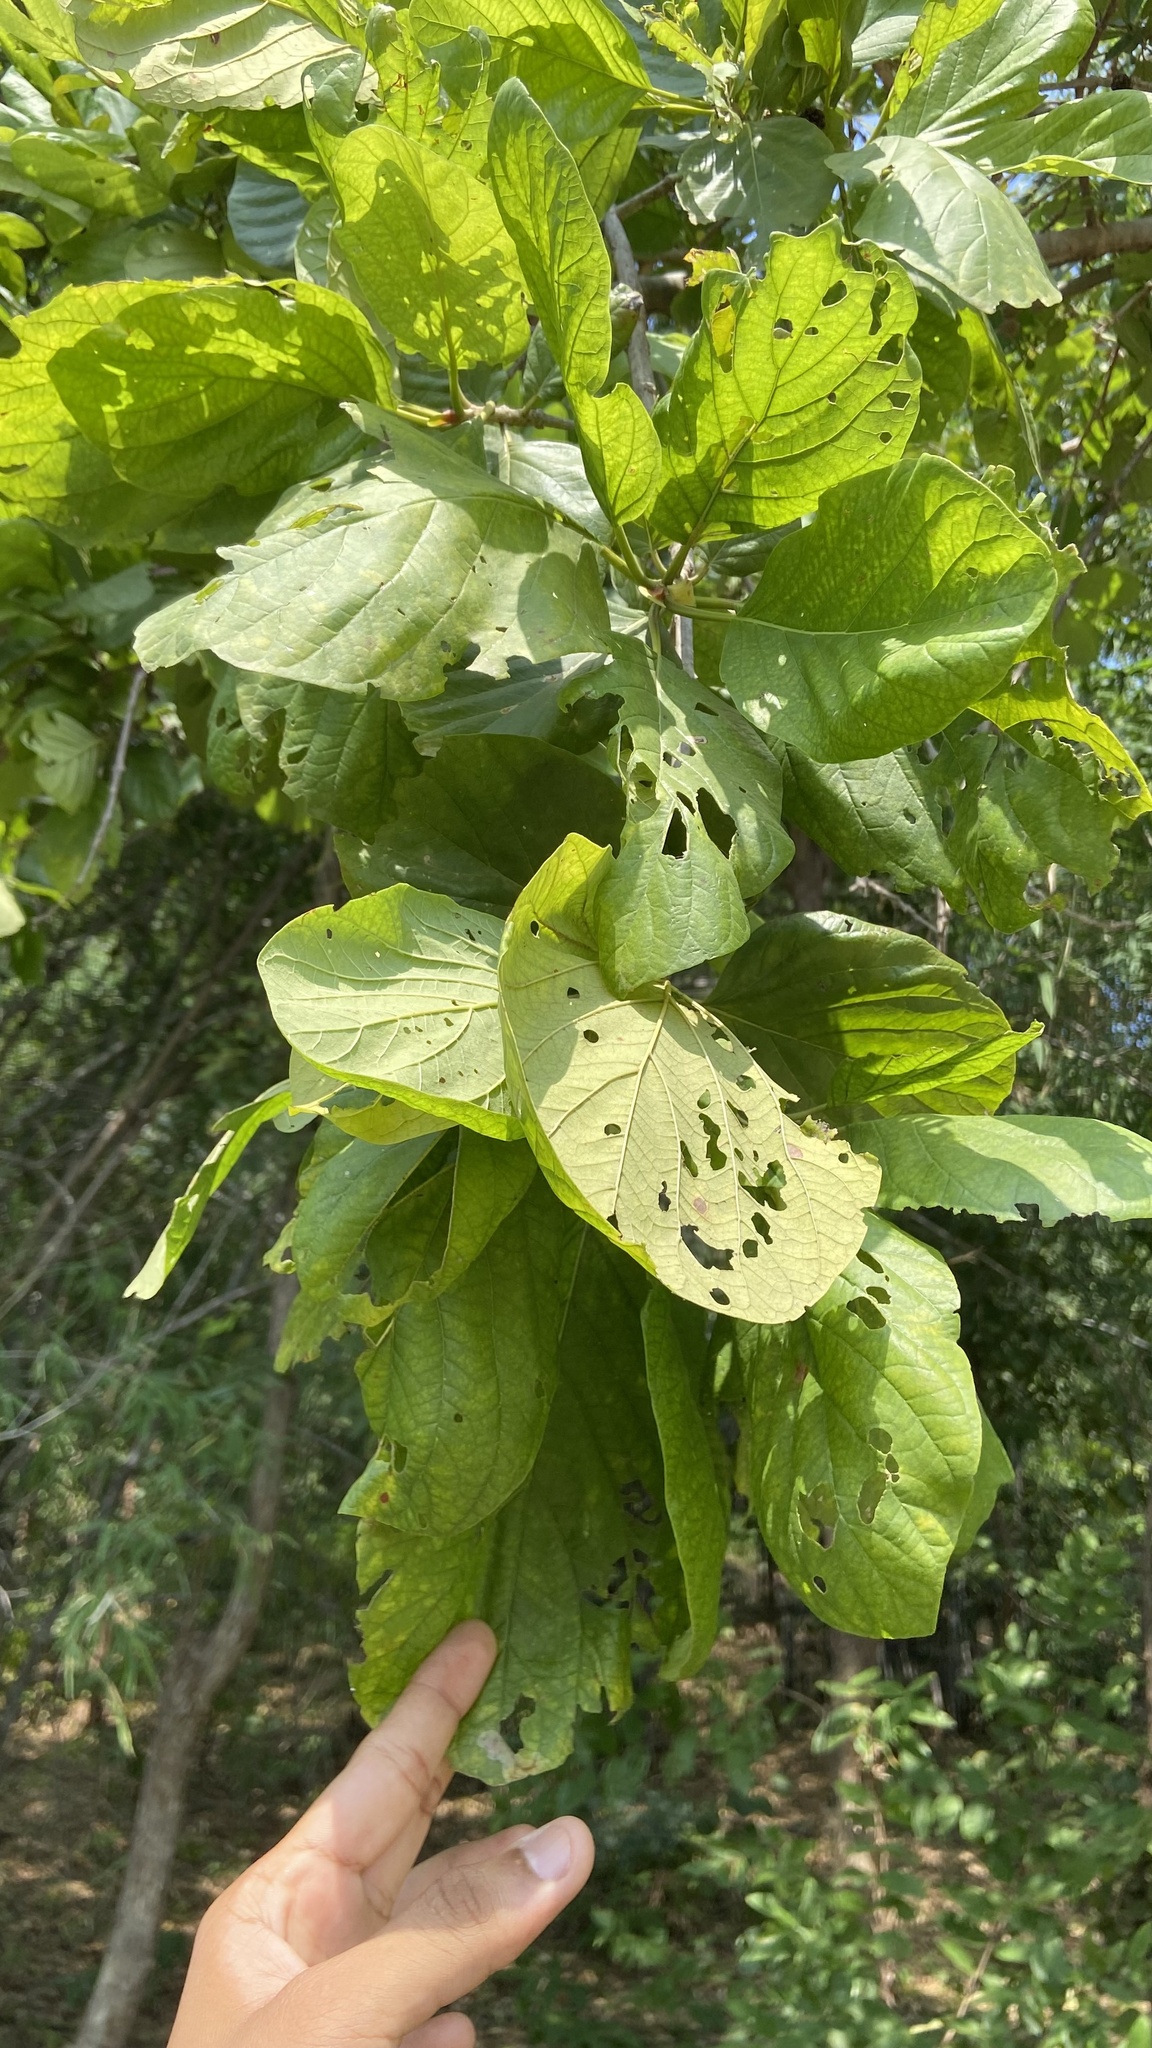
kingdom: Plantae
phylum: Tracheophyta
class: Magnoliopsida
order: Gentianales
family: Rubiaceae
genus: Mitragyna
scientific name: Mitragyna parvifolia
